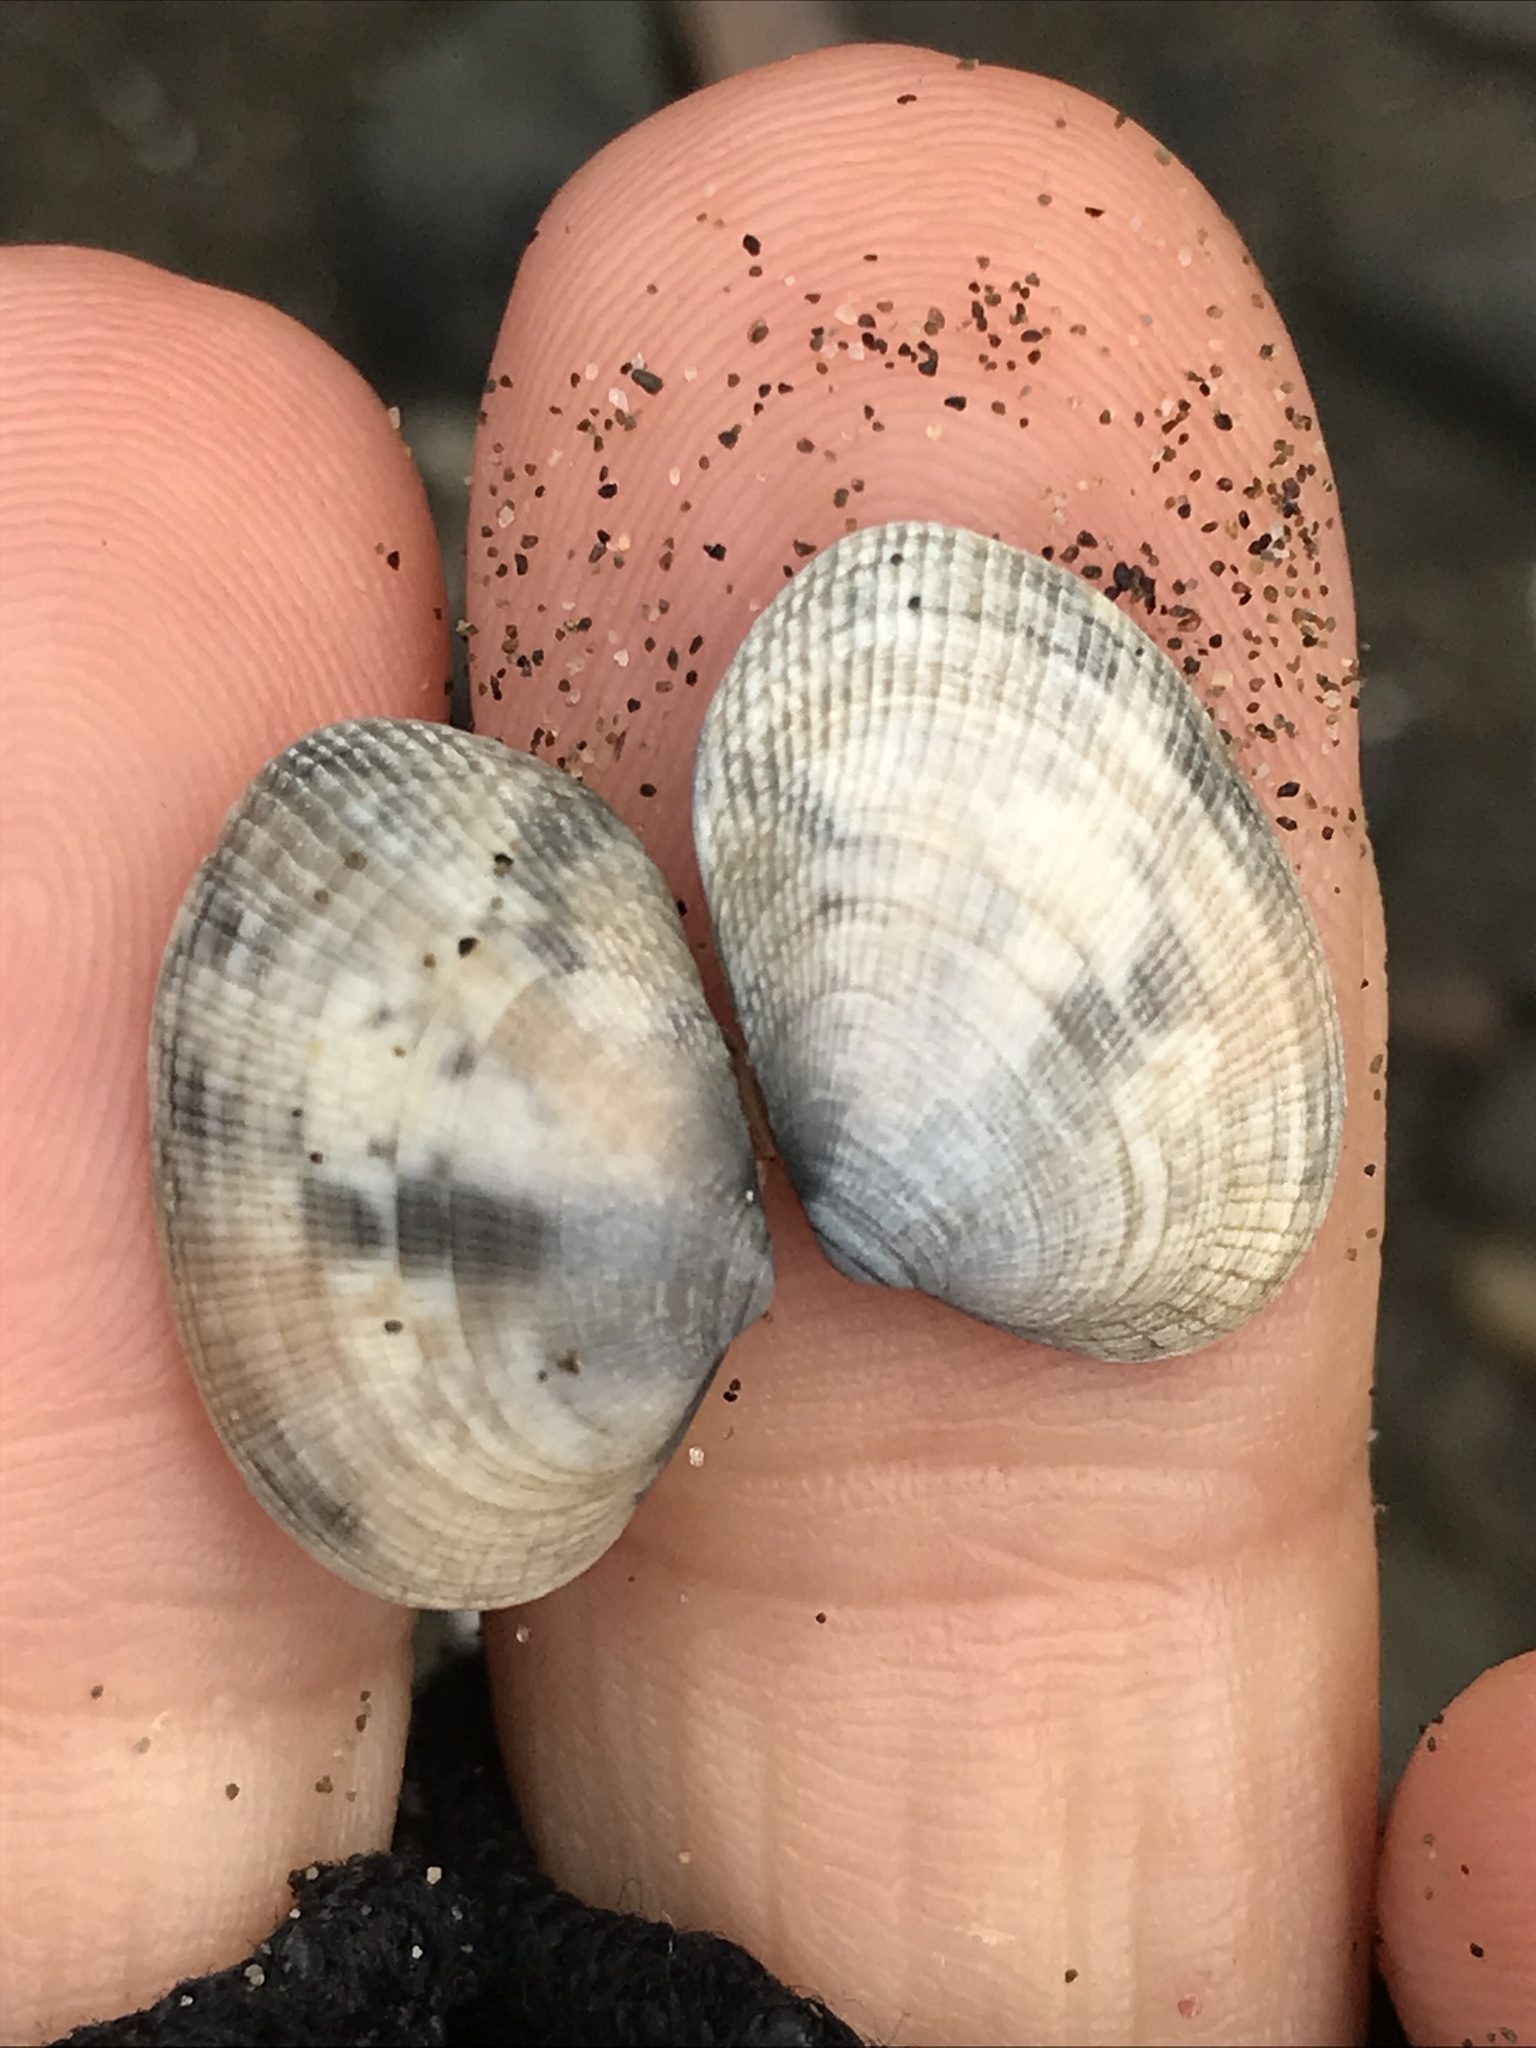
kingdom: Animalia
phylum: Mollusca
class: Bivalvia
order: Venerida
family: Veneridae
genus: Ruditapes
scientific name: Ruditapes philippinarum
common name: Manila clam
